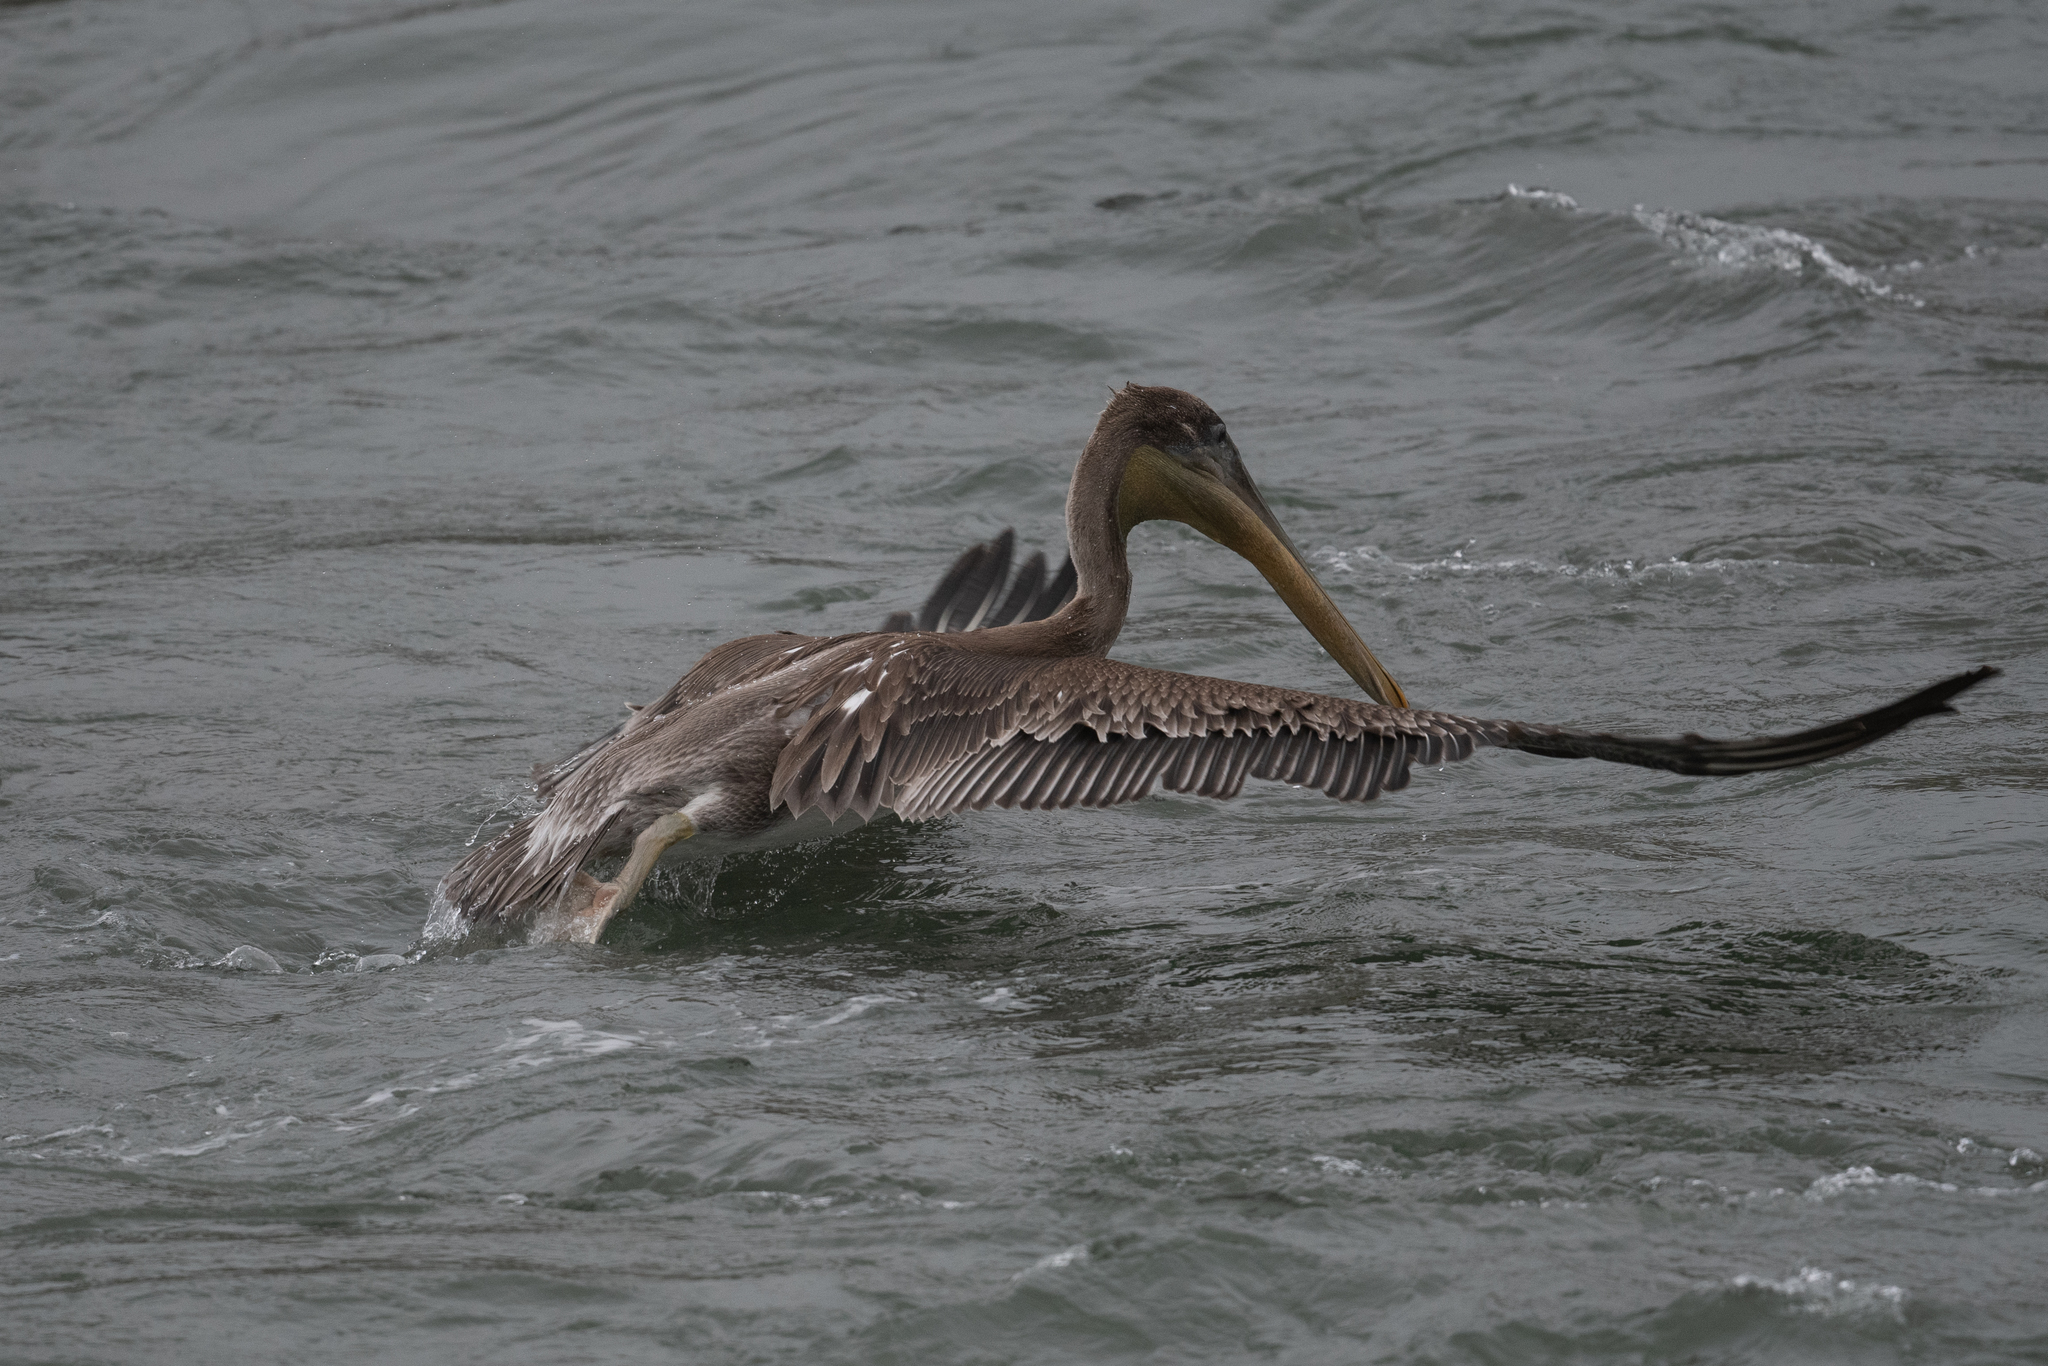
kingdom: Animalia
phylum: Chordata
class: Aves
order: Pelecaniformes
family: Pelecanidae
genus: Pelecanus
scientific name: Pelecanus occidentalis
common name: Brown pelican
